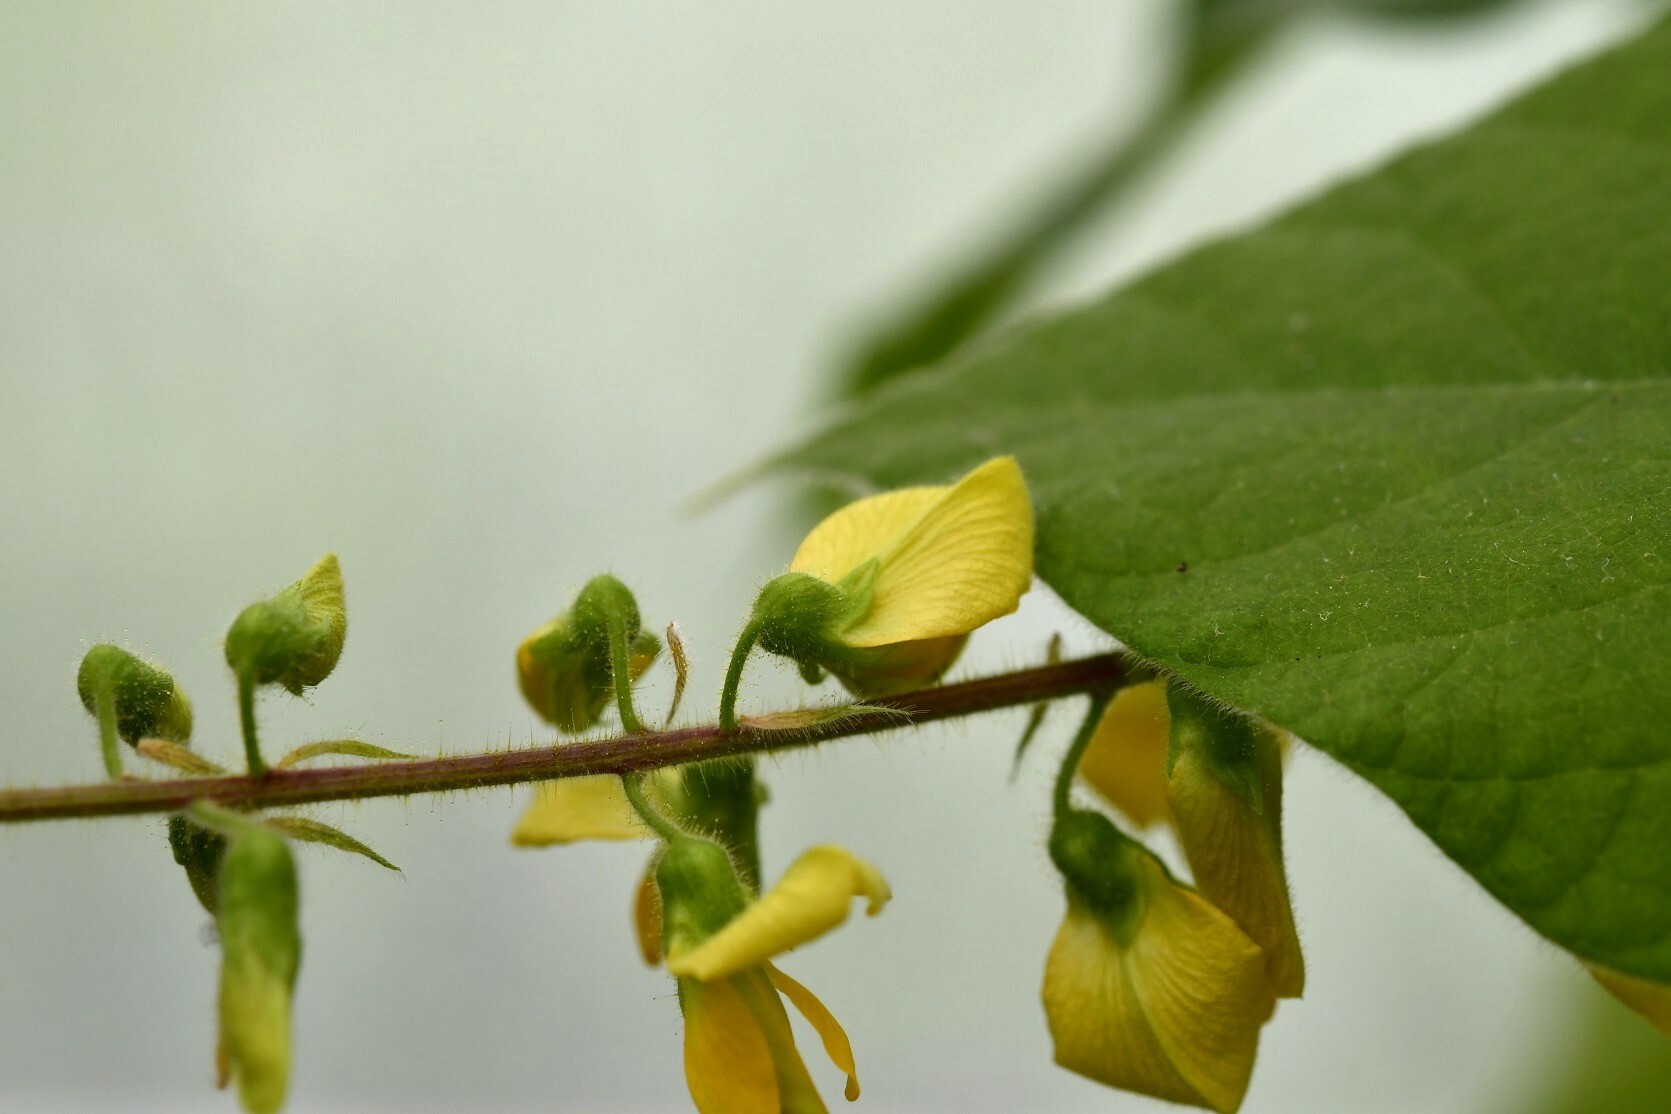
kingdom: Plantae
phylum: Tracheophyta
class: Magnoliopsida
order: Fabales
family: Fabaceae
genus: Rhynchosia
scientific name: Rhynchosia erythrinoides
